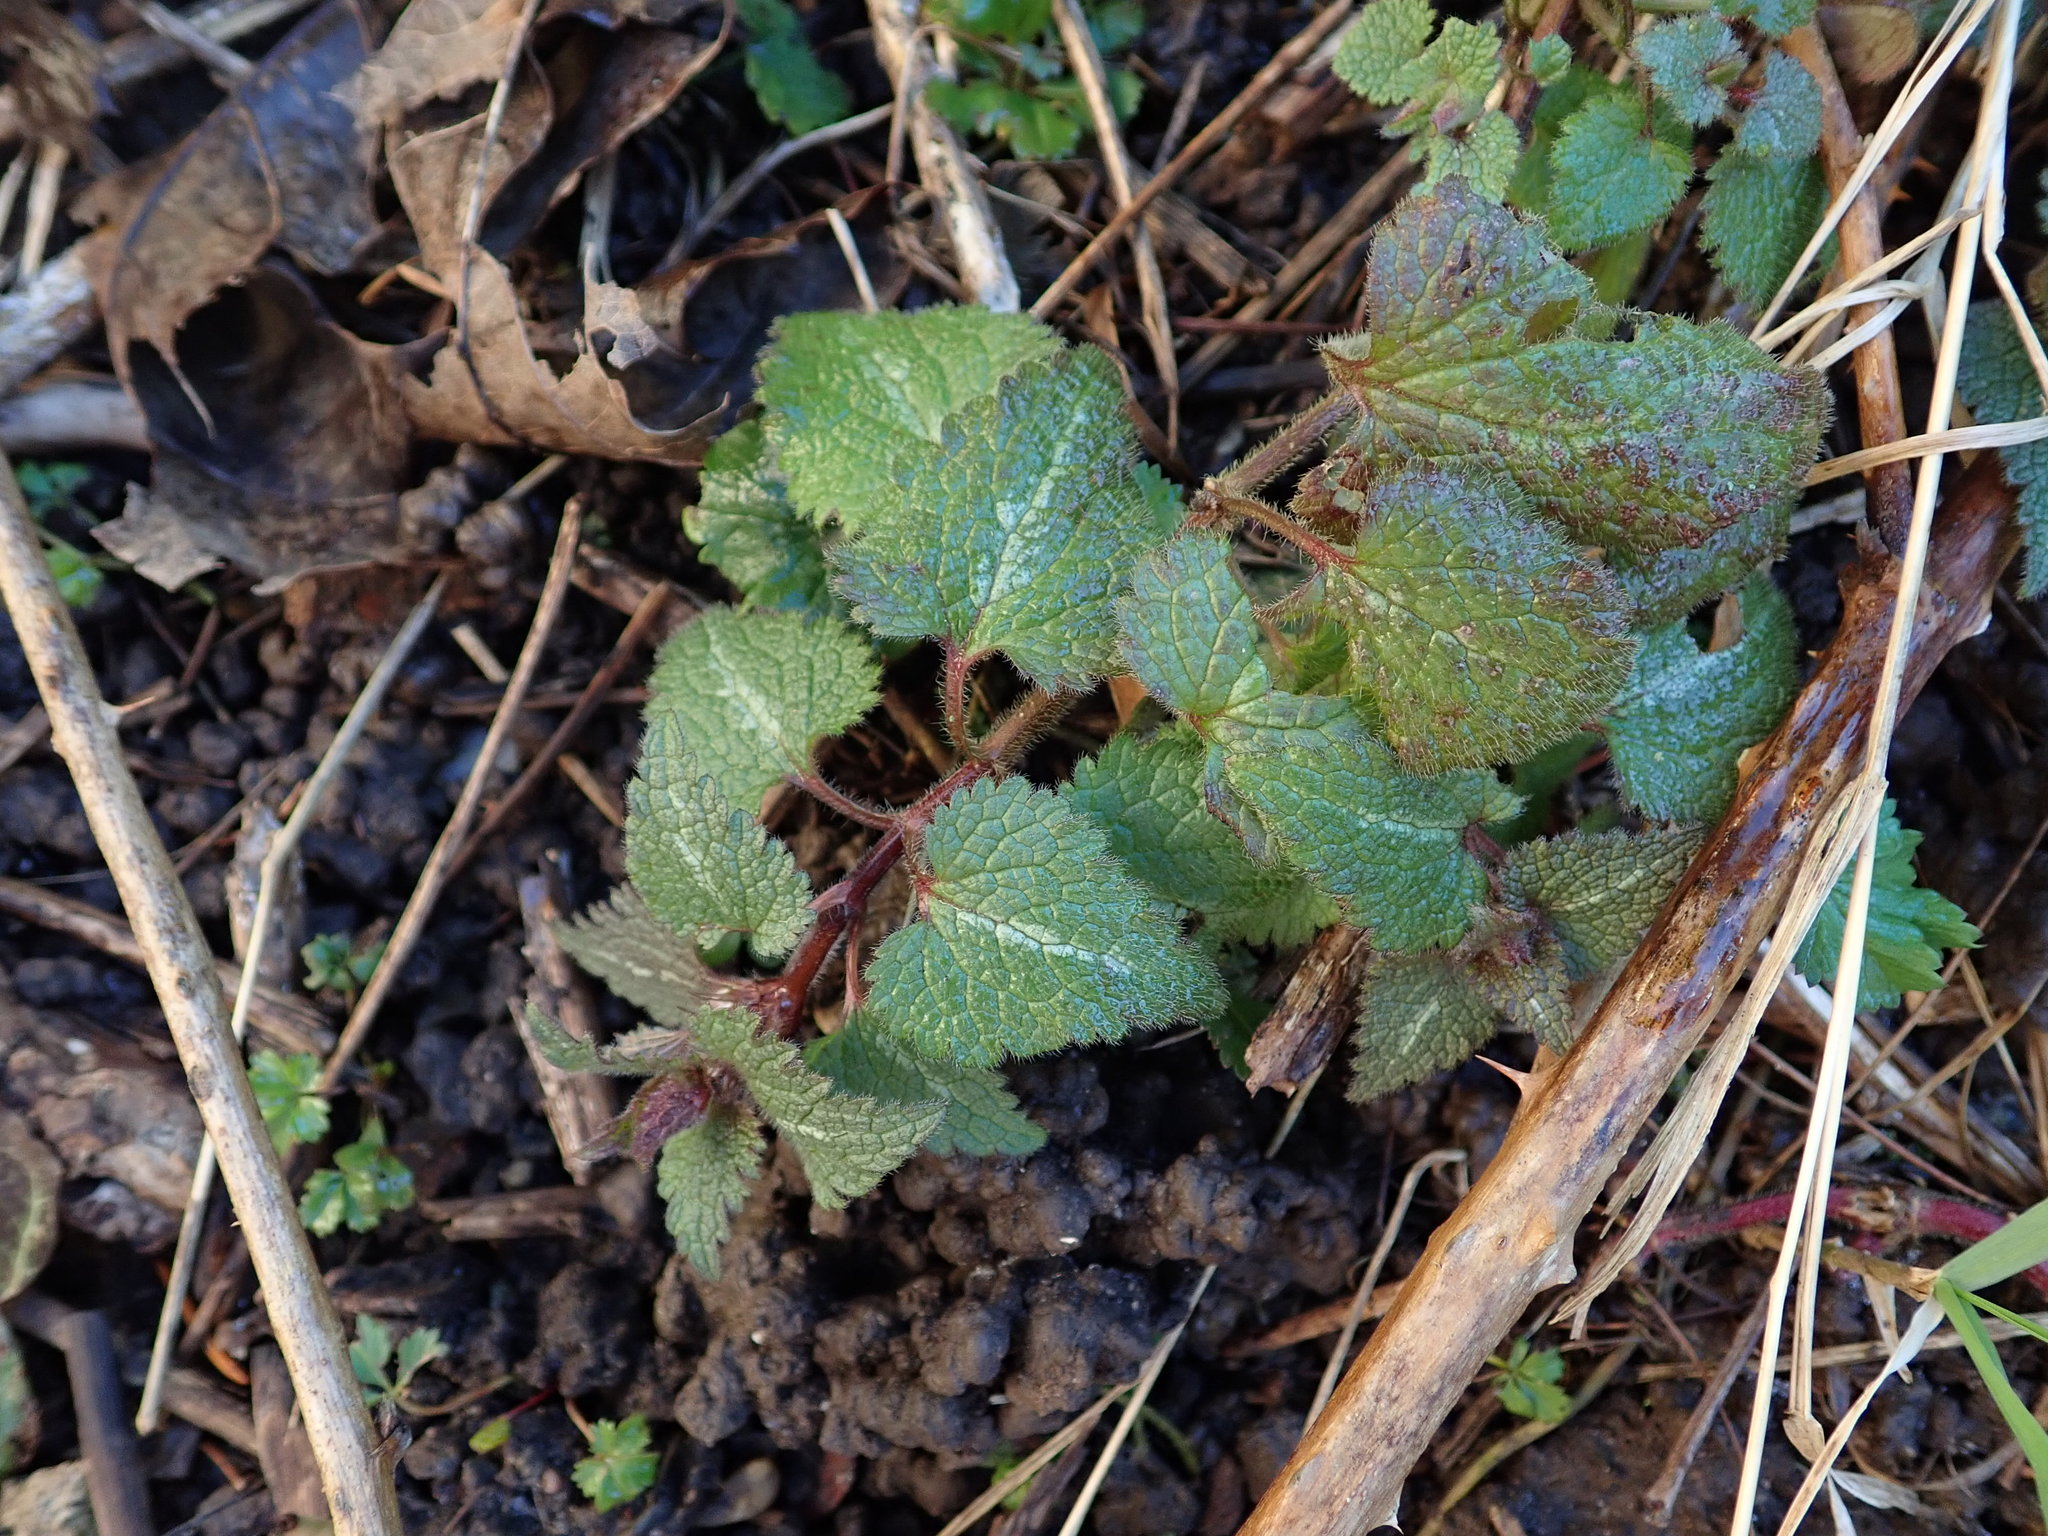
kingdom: Plantae
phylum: Tracheophyta
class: Magnoliopsida
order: Lamiales
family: Lamiaceae
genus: Lamium
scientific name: Lamium maculatum
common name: Spotted dead-nettle
